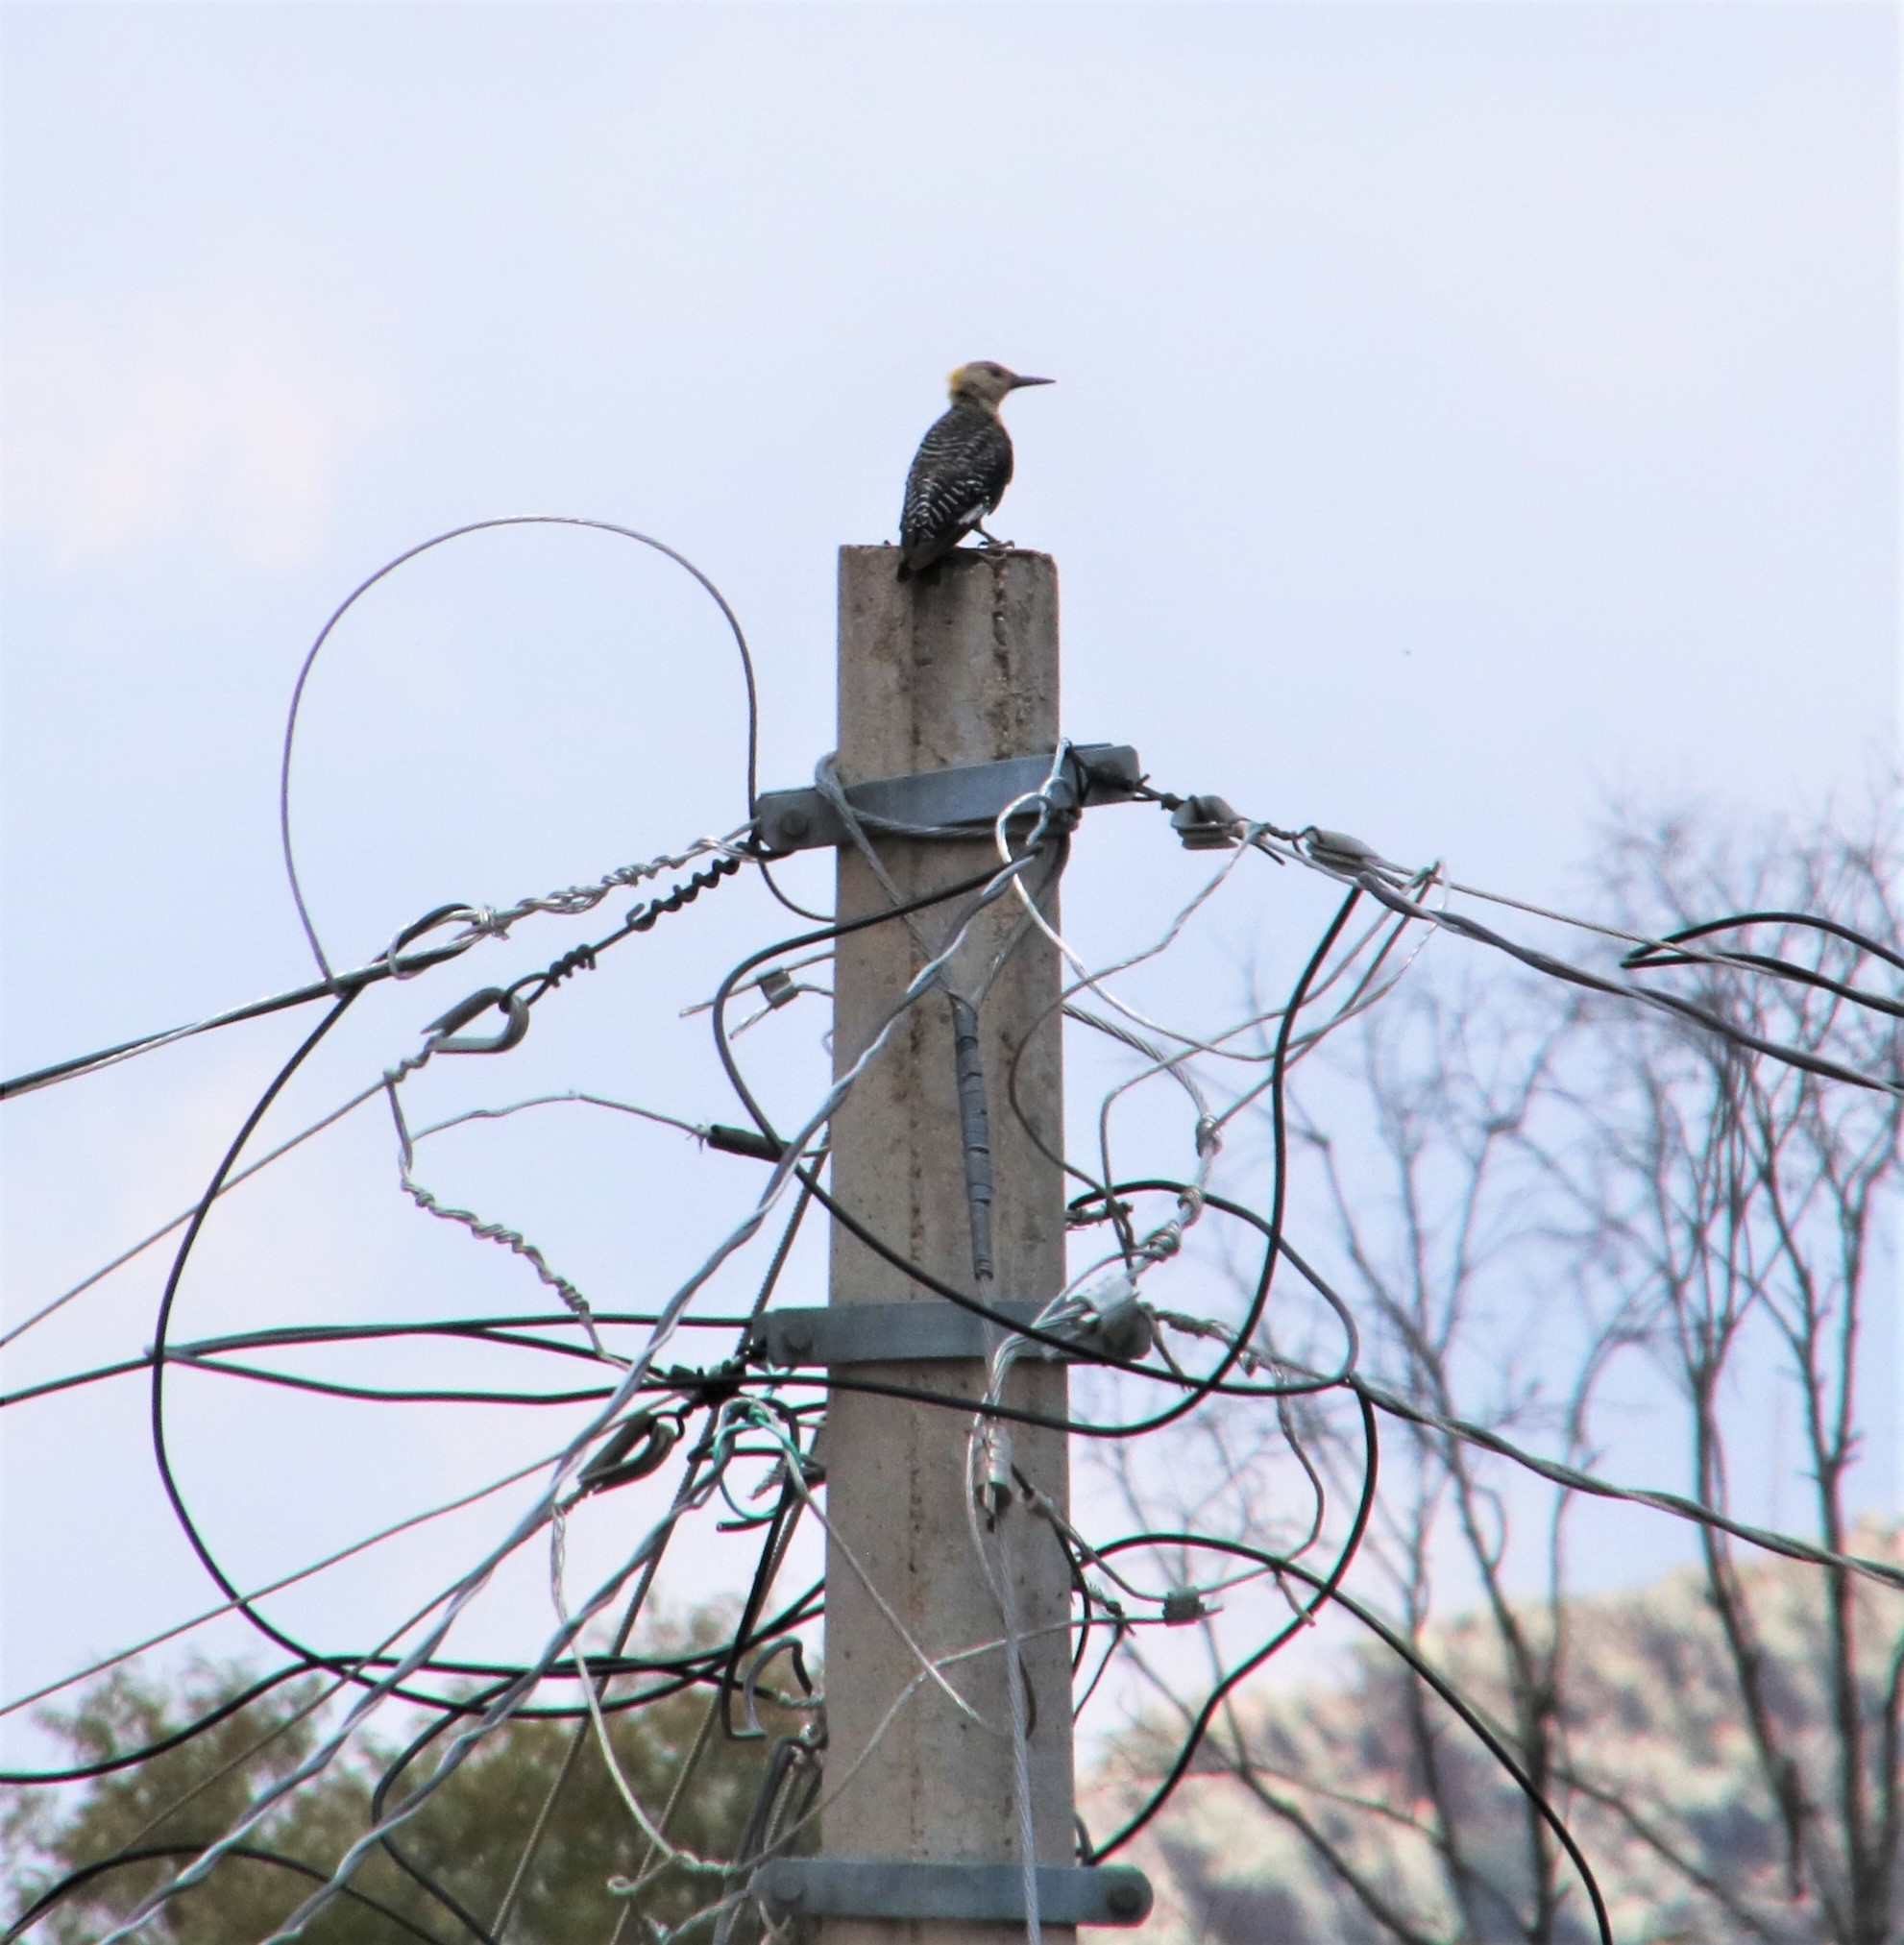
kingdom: Animalia
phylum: Chordata
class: Aves
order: Piciformes
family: Picidae
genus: Melanerpes
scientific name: Melanerpes aurifrons
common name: Golden-fronted woodpecker
